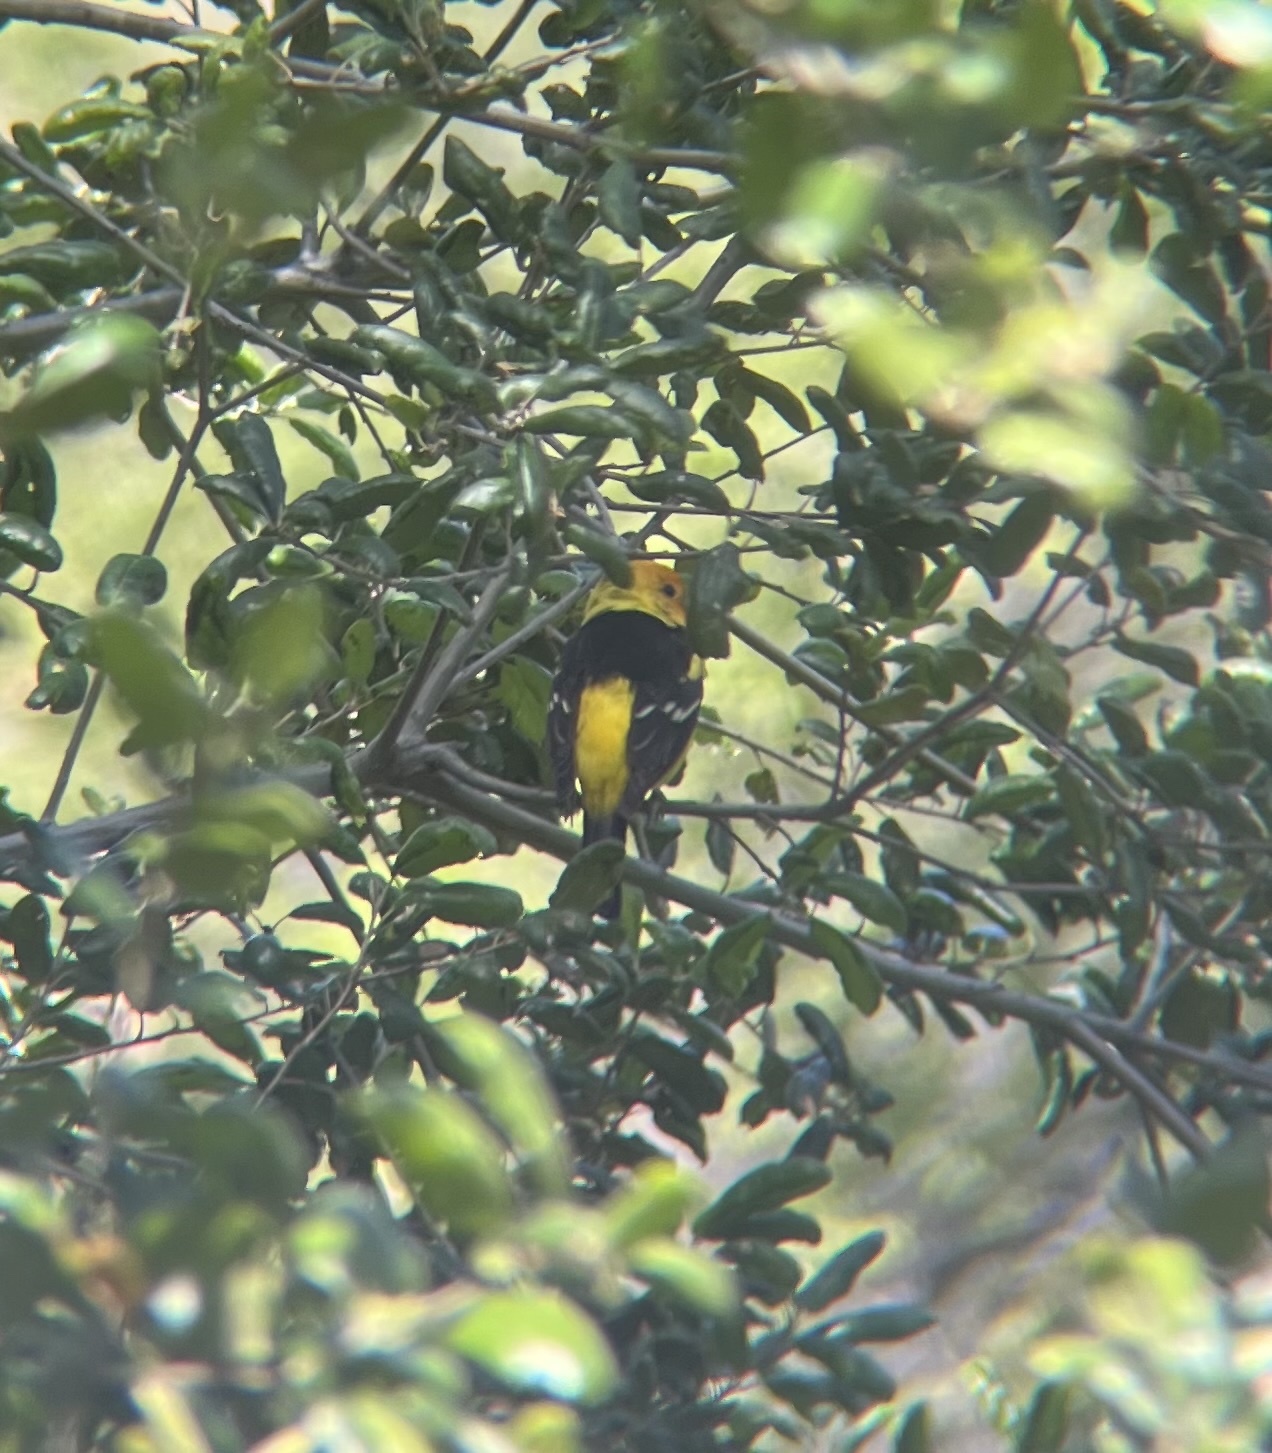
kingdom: Animalia
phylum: Chordata
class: Aves
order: Passeriformes
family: Cardinalidae
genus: Piranga
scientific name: Piranga ludoviciana
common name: Western tanager
